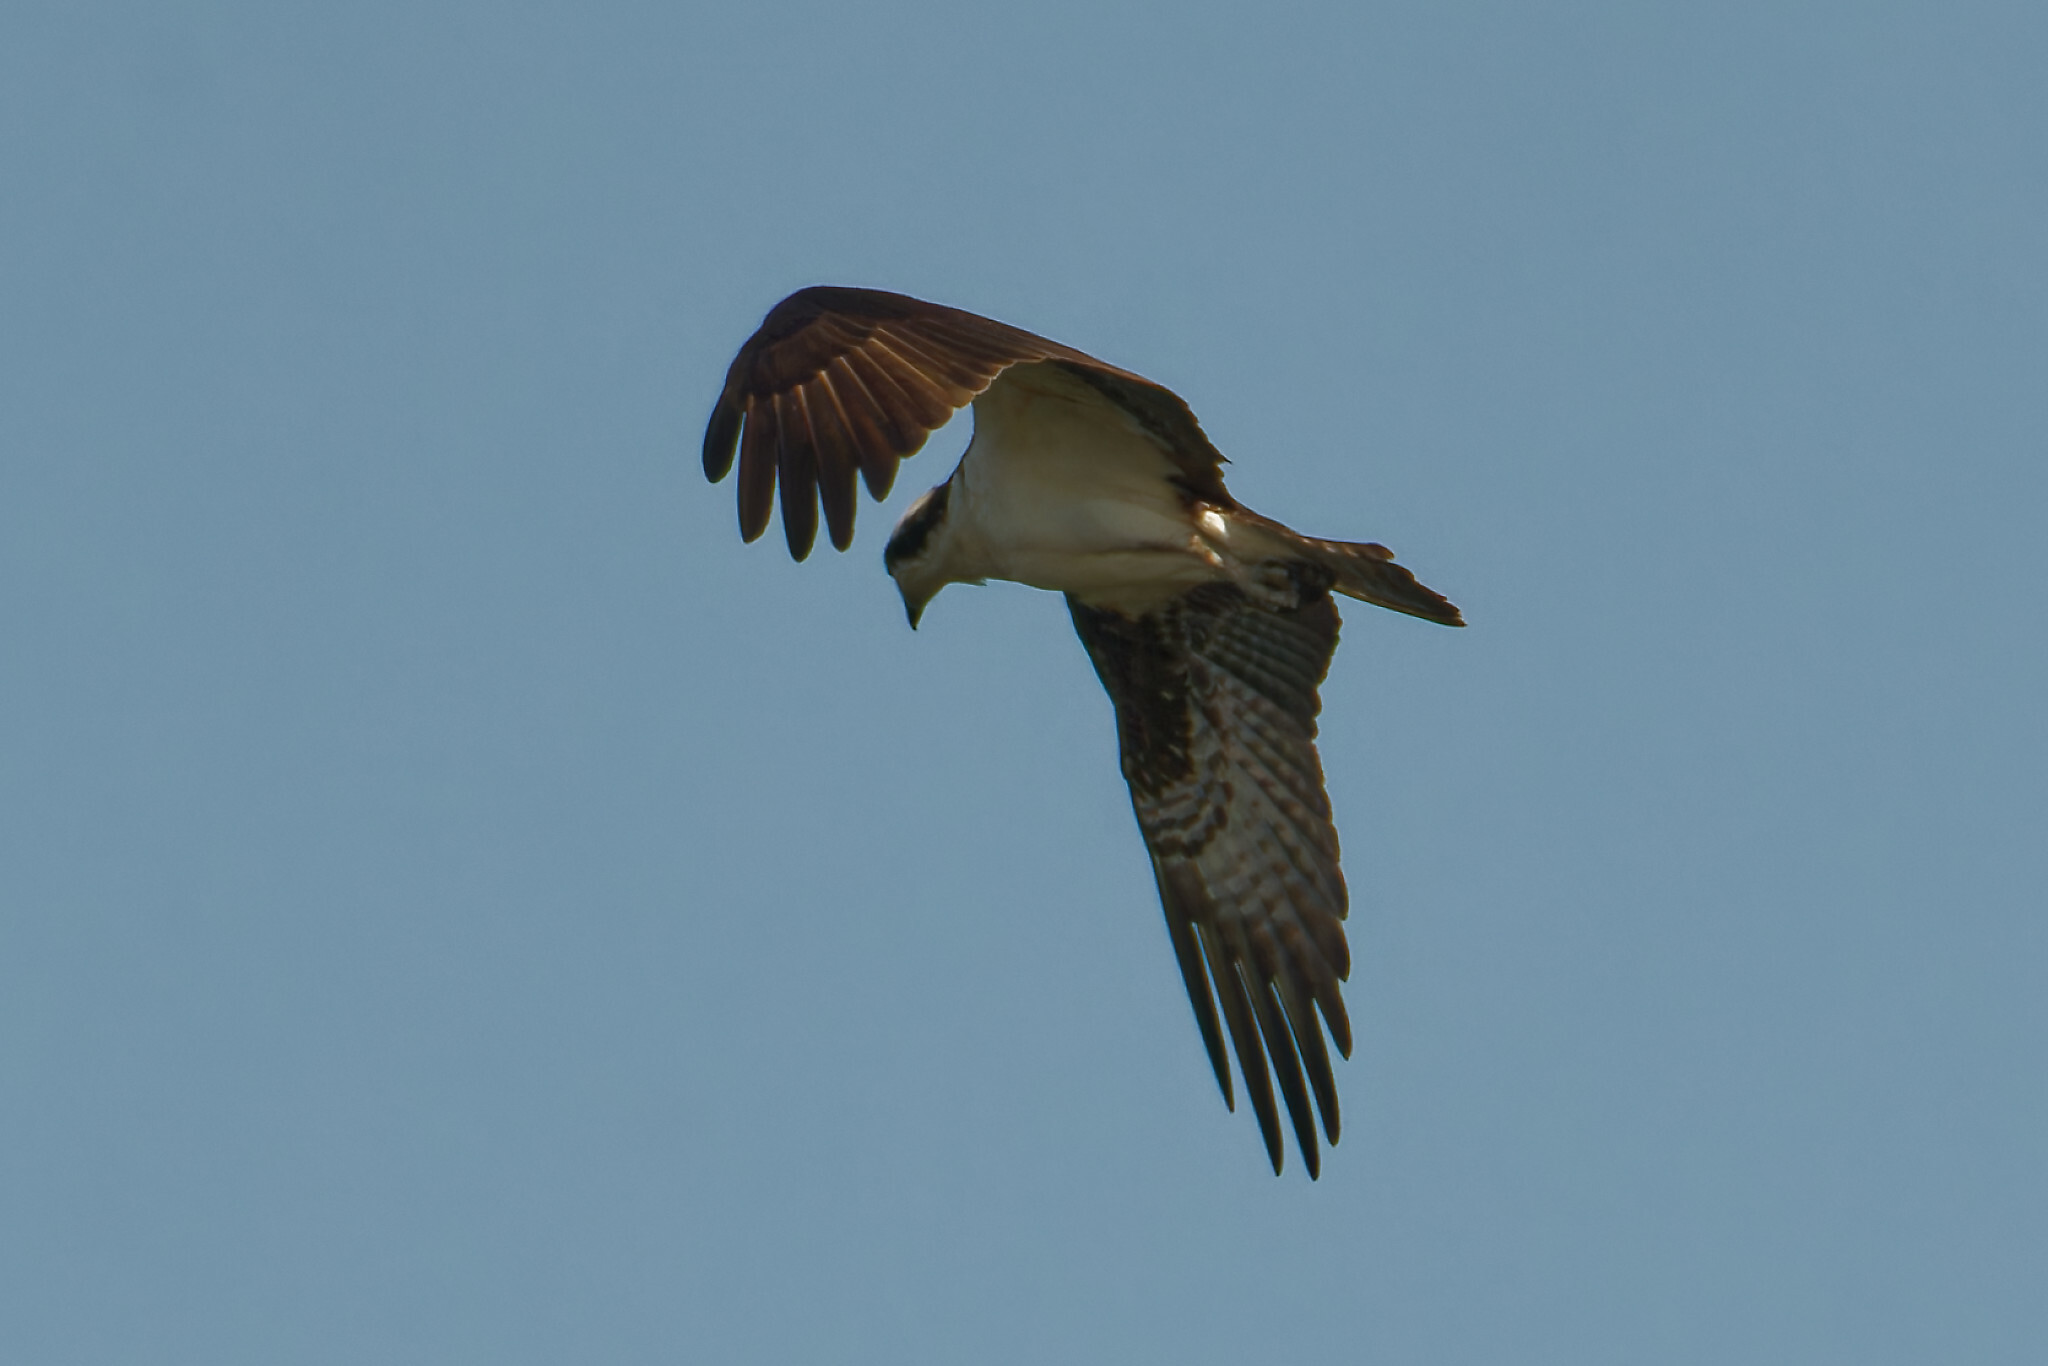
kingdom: Animalia
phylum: Chordata
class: Aves
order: Accipitriformes
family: Pandionidae
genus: Pandion
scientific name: Pandion haliaetus
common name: Osprey
